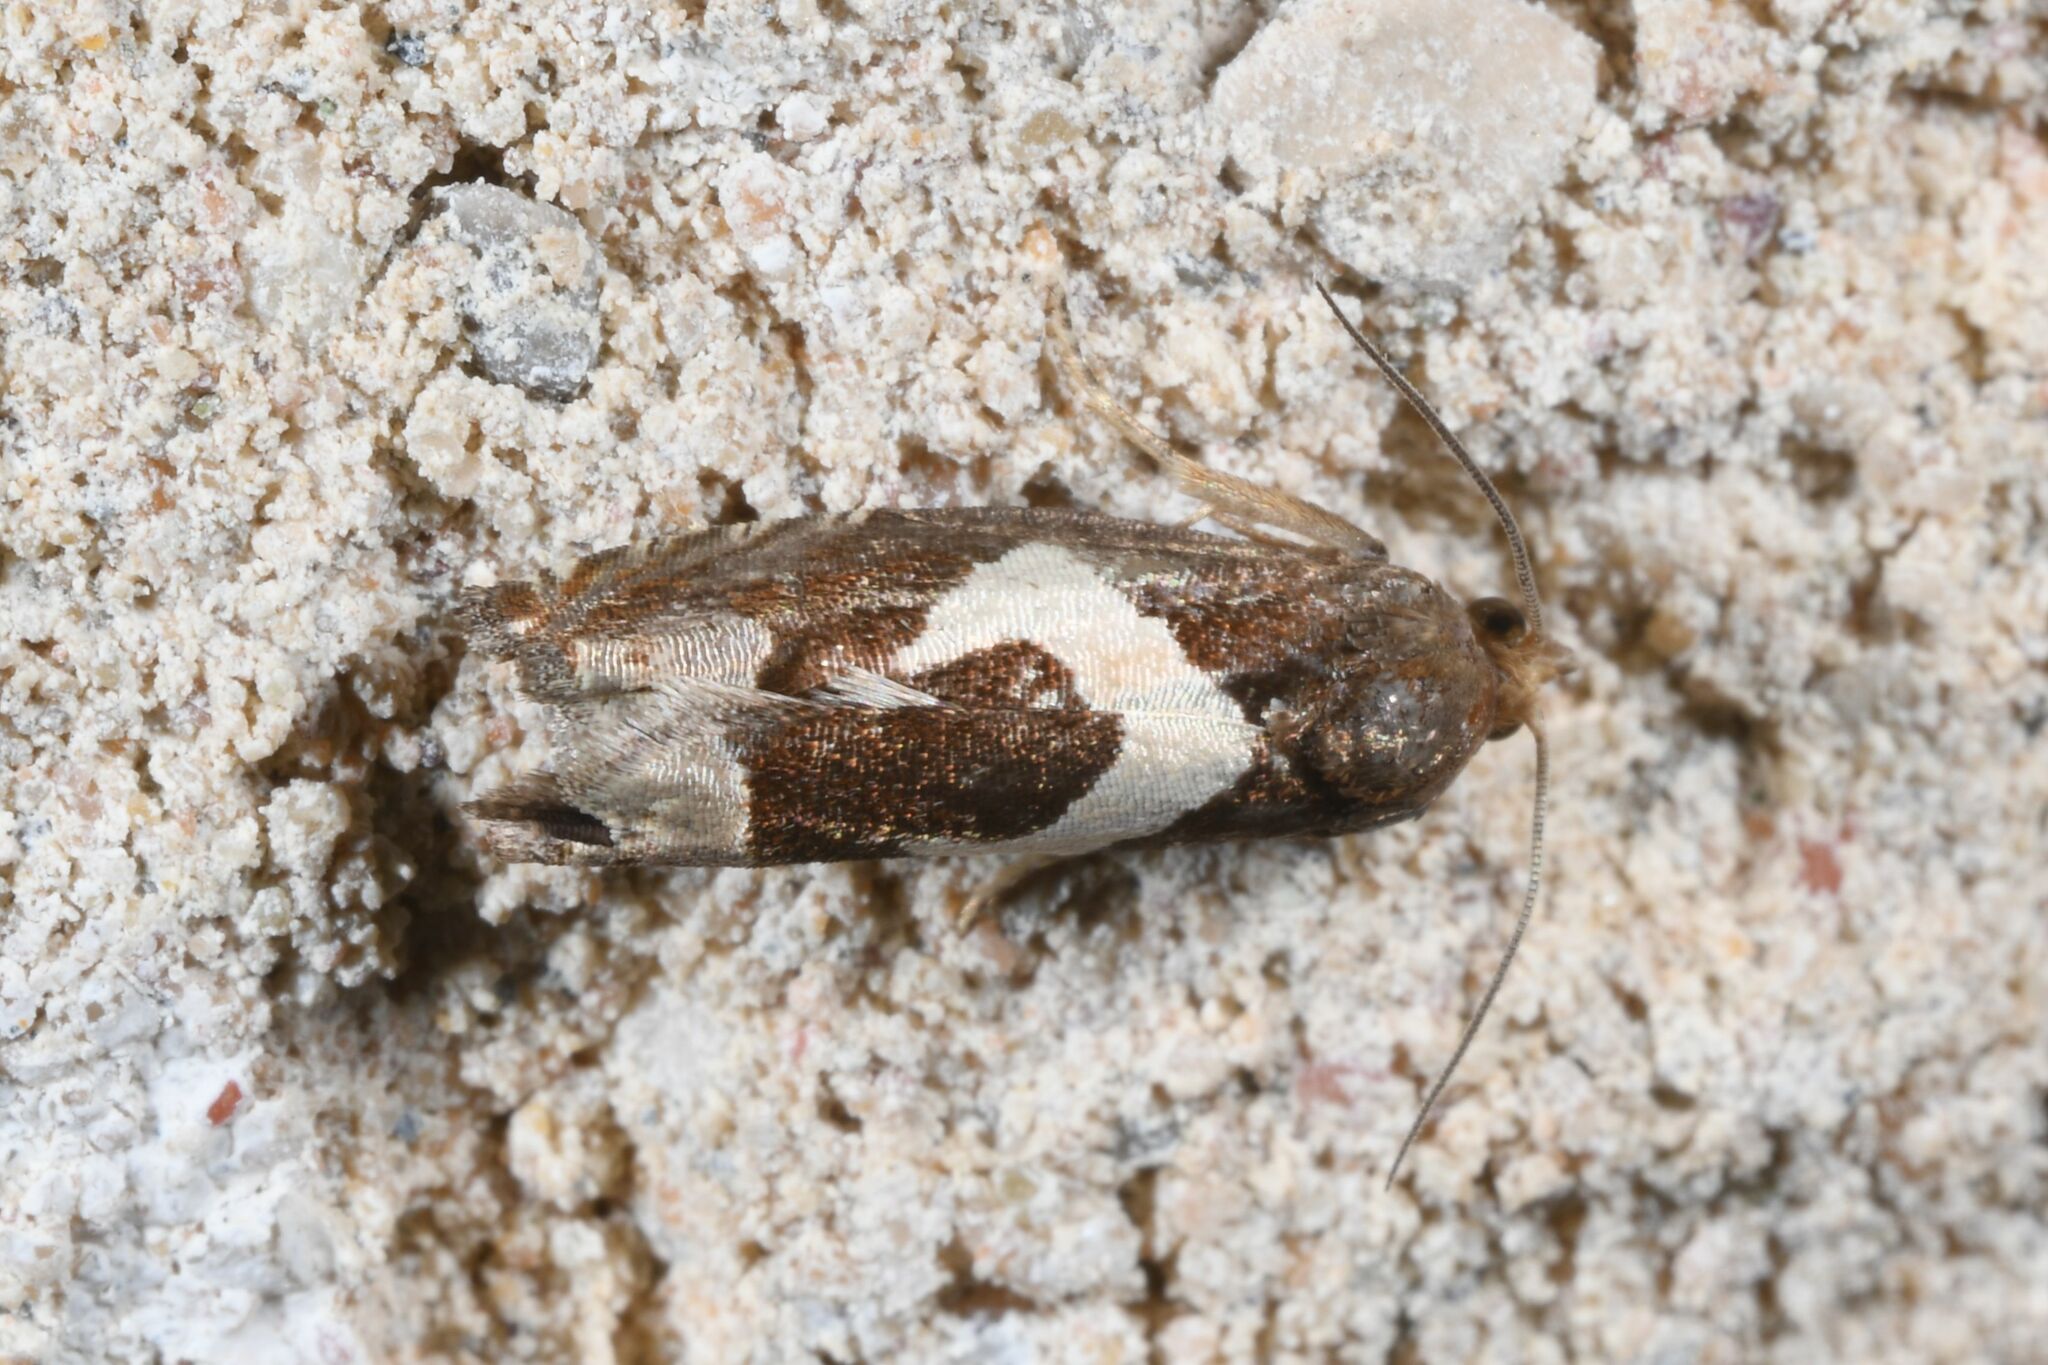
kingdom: Animalia
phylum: Arthropoda
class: Insecta
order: Lepidoptera
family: Tortricidae
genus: Epiblema
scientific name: Epiblema foenella
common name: White-foot bell
